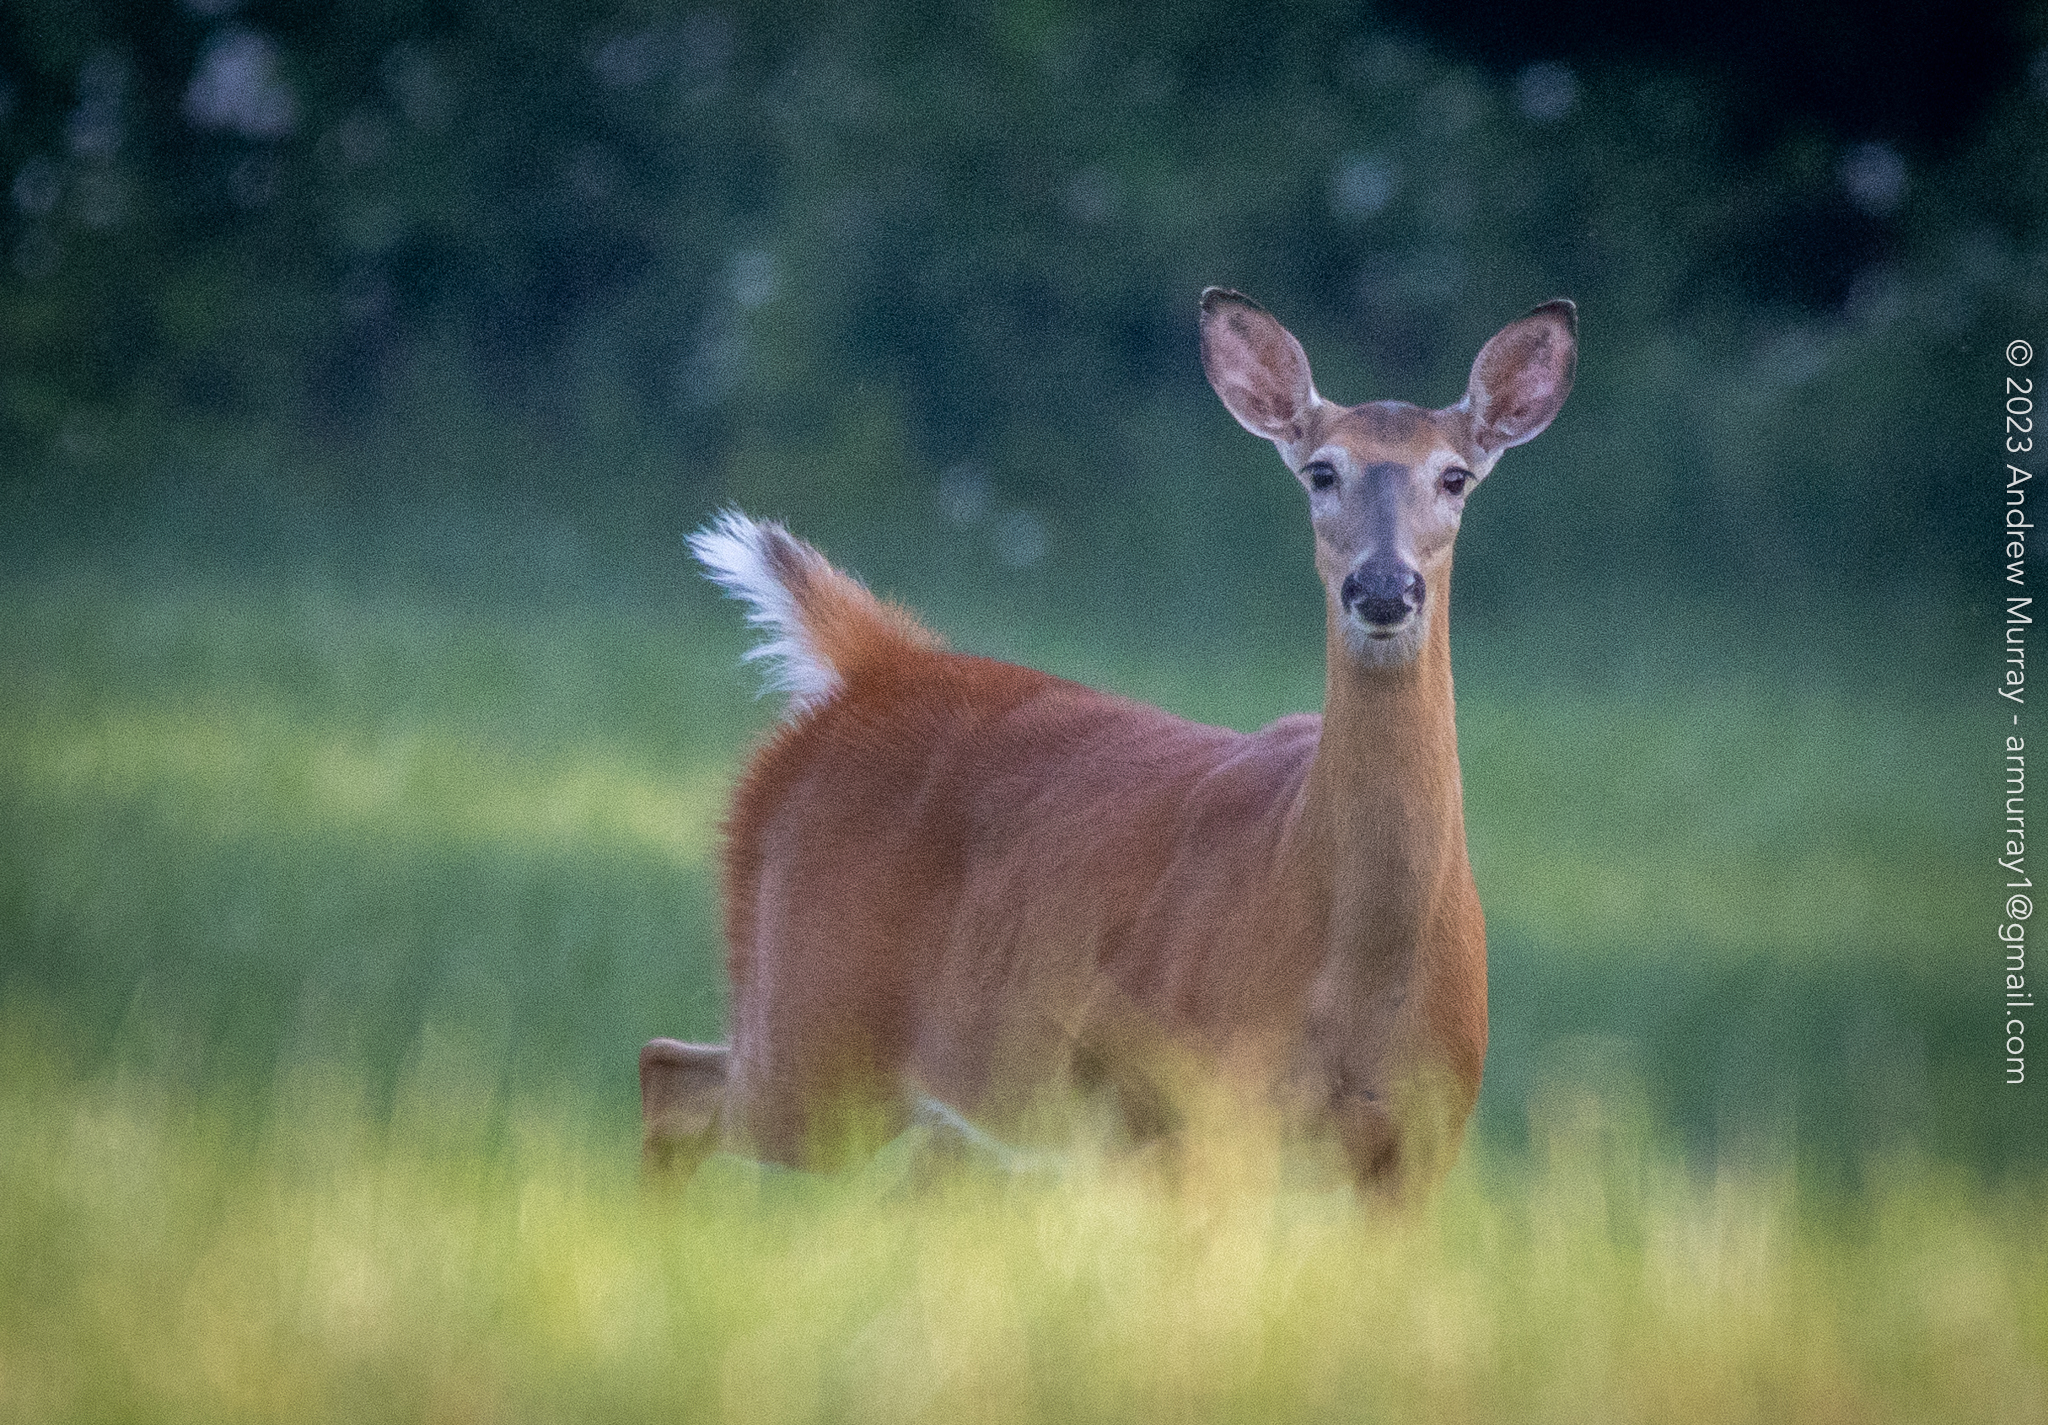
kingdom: Animalia
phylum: Chordata
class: Mammalia
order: Artiodactyla
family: Cervidae
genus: Odocoileus
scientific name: Odocoileus virginianus
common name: White-tailed deer
